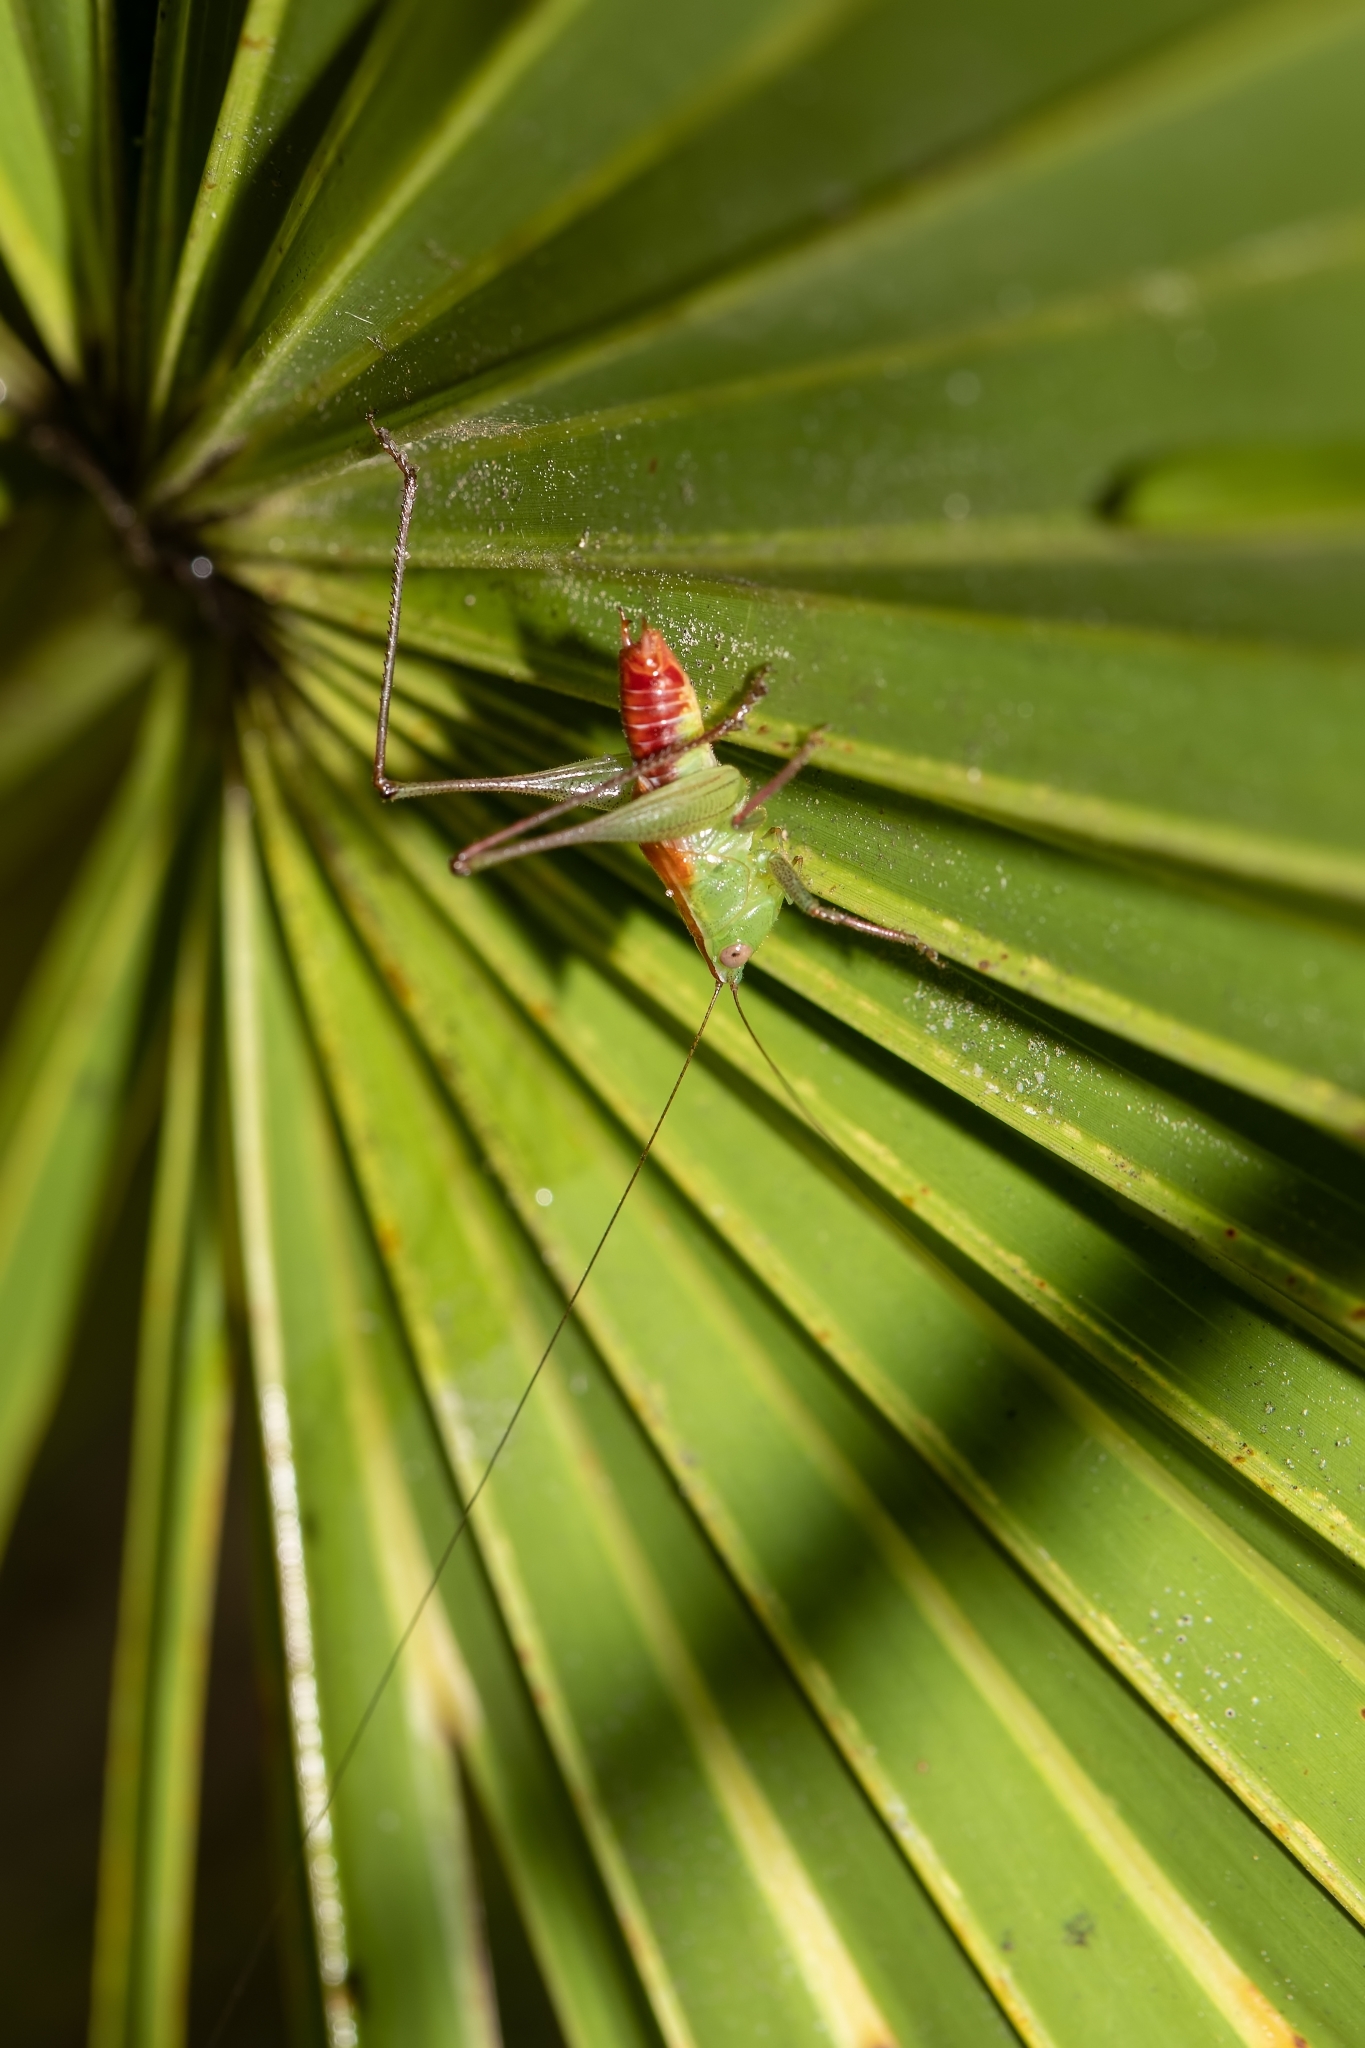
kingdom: Animalia
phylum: Arthropoda
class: Insecta
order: Orthoptera
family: Tettigoniidae
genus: Odontoxiphidium
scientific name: Odontoxiphidium apterum
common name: Wingless meadow katydid
